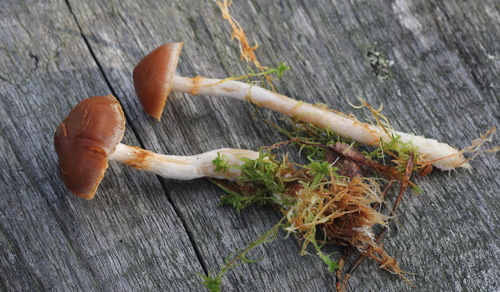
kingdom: Fungi
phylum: Basidiomycota
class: Agaricomycetes
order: Agaricales
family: Cortinariaceae
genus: Cortinarius
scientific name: Cortinarius biformis
